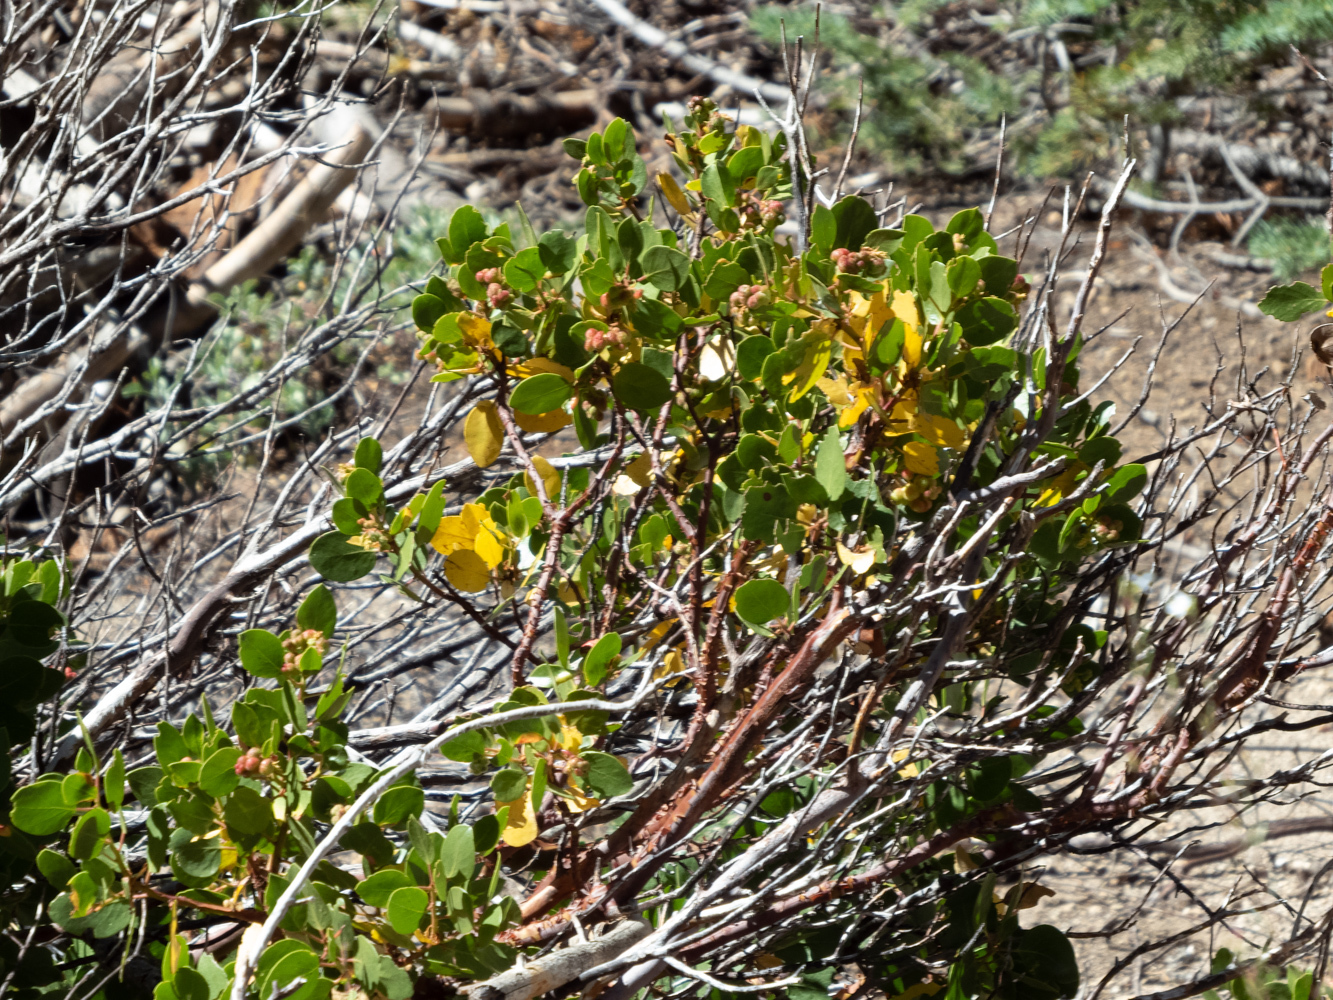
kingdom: Plantae
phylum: Tracheophyta
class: Magnoliopsida
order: Ericales
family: Ericaceae
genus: Arctostaphylos
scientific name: Arctostaphylos patula
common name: Green-leaf manzanita
